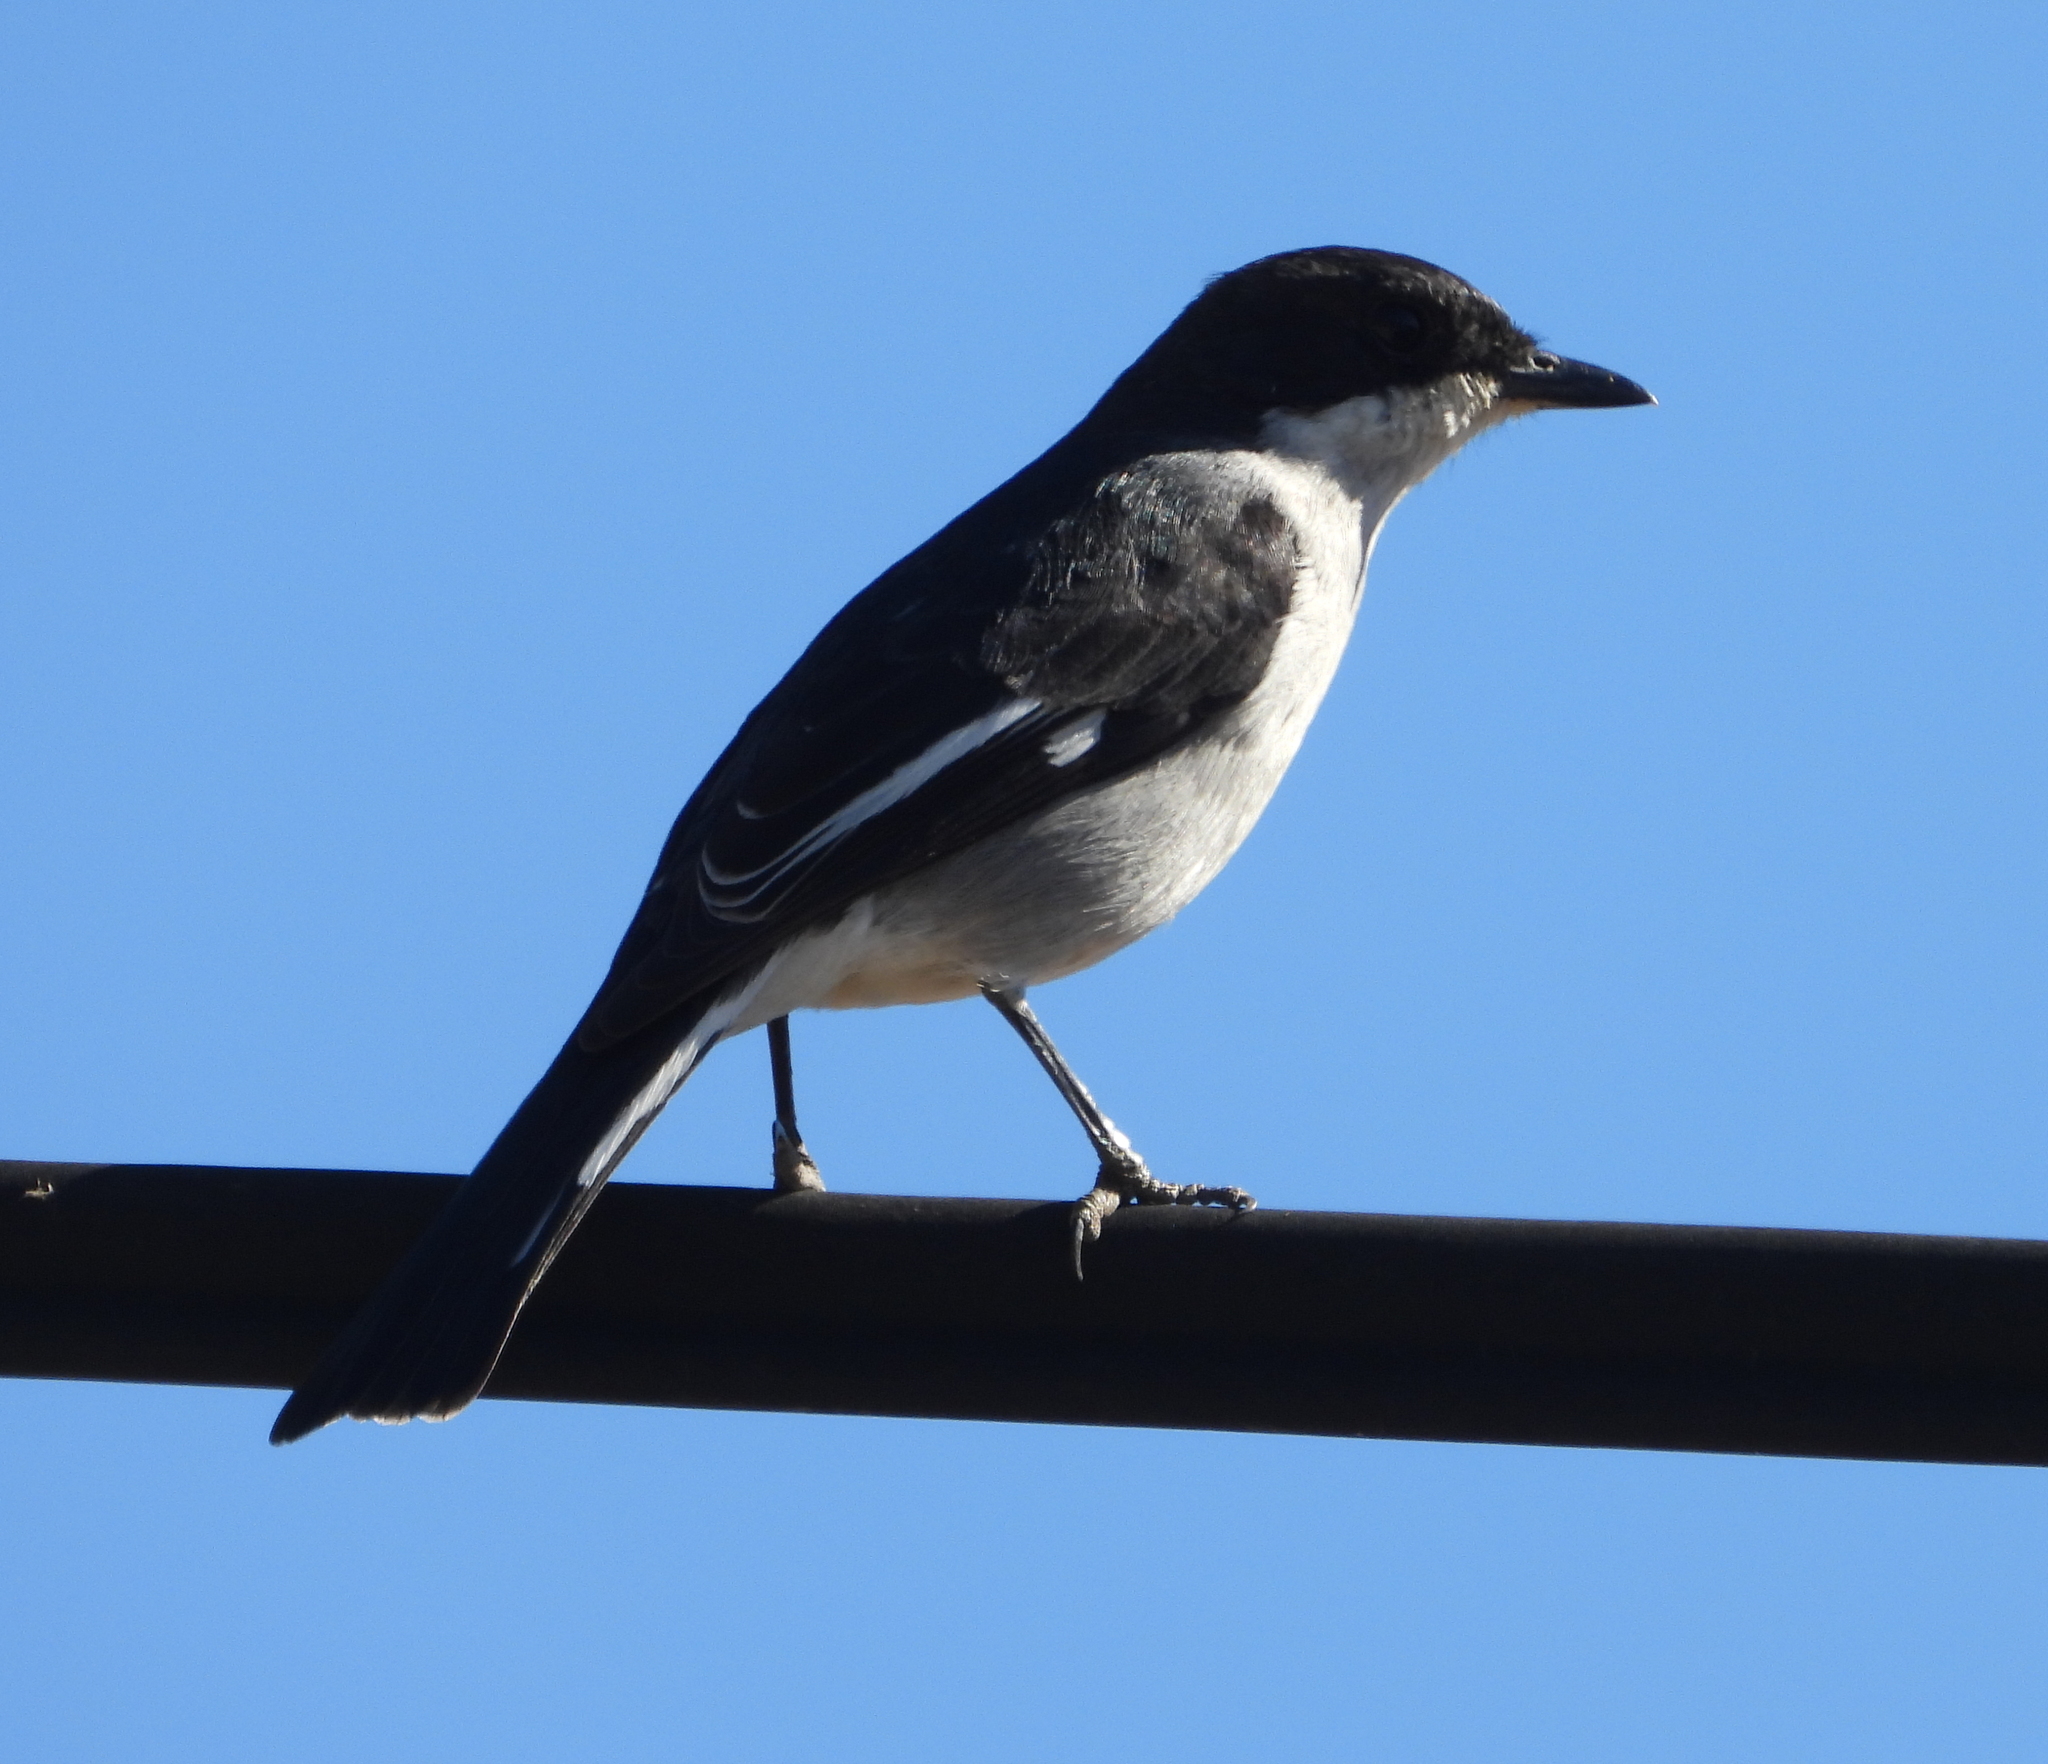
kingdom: Animalia
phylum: Chordata
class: Aves
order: Passeriformes
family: Muscicapidae
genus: Sigelus
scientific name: Sigelus silens
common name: Fiscal flycatcher
